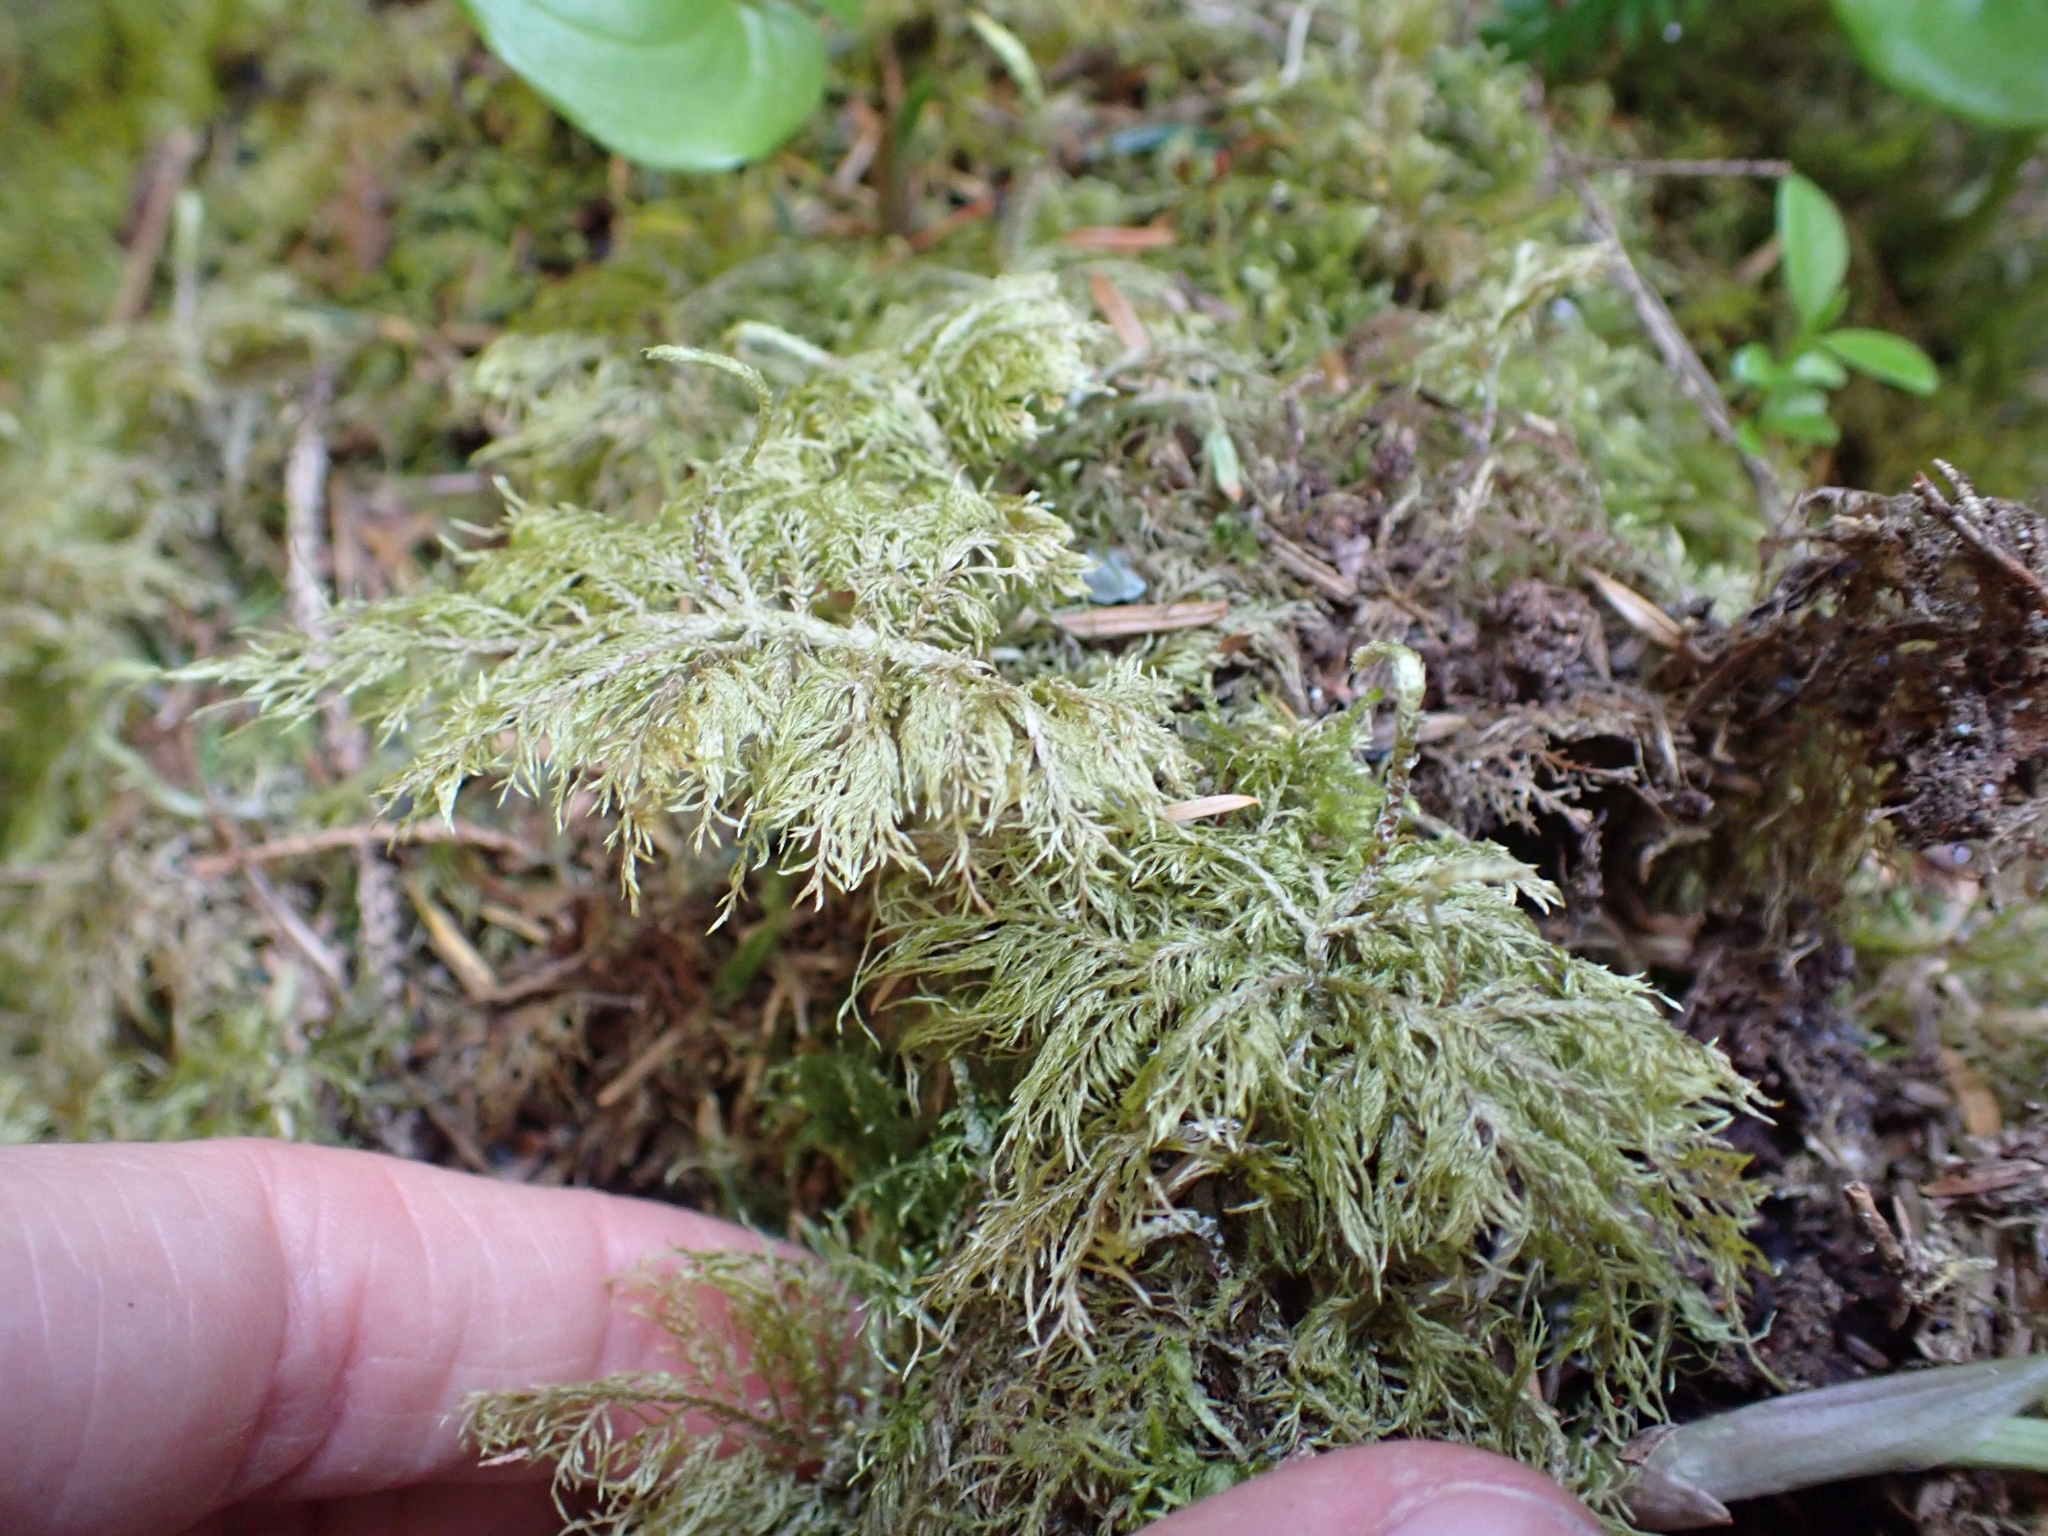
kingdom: Plantae
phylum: Bryophyta
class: Bryopsida
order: Hypnales
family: Hylocomiaceae
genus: Hylocomium
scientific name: Hylocomium splendens
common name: Stairstep moss
